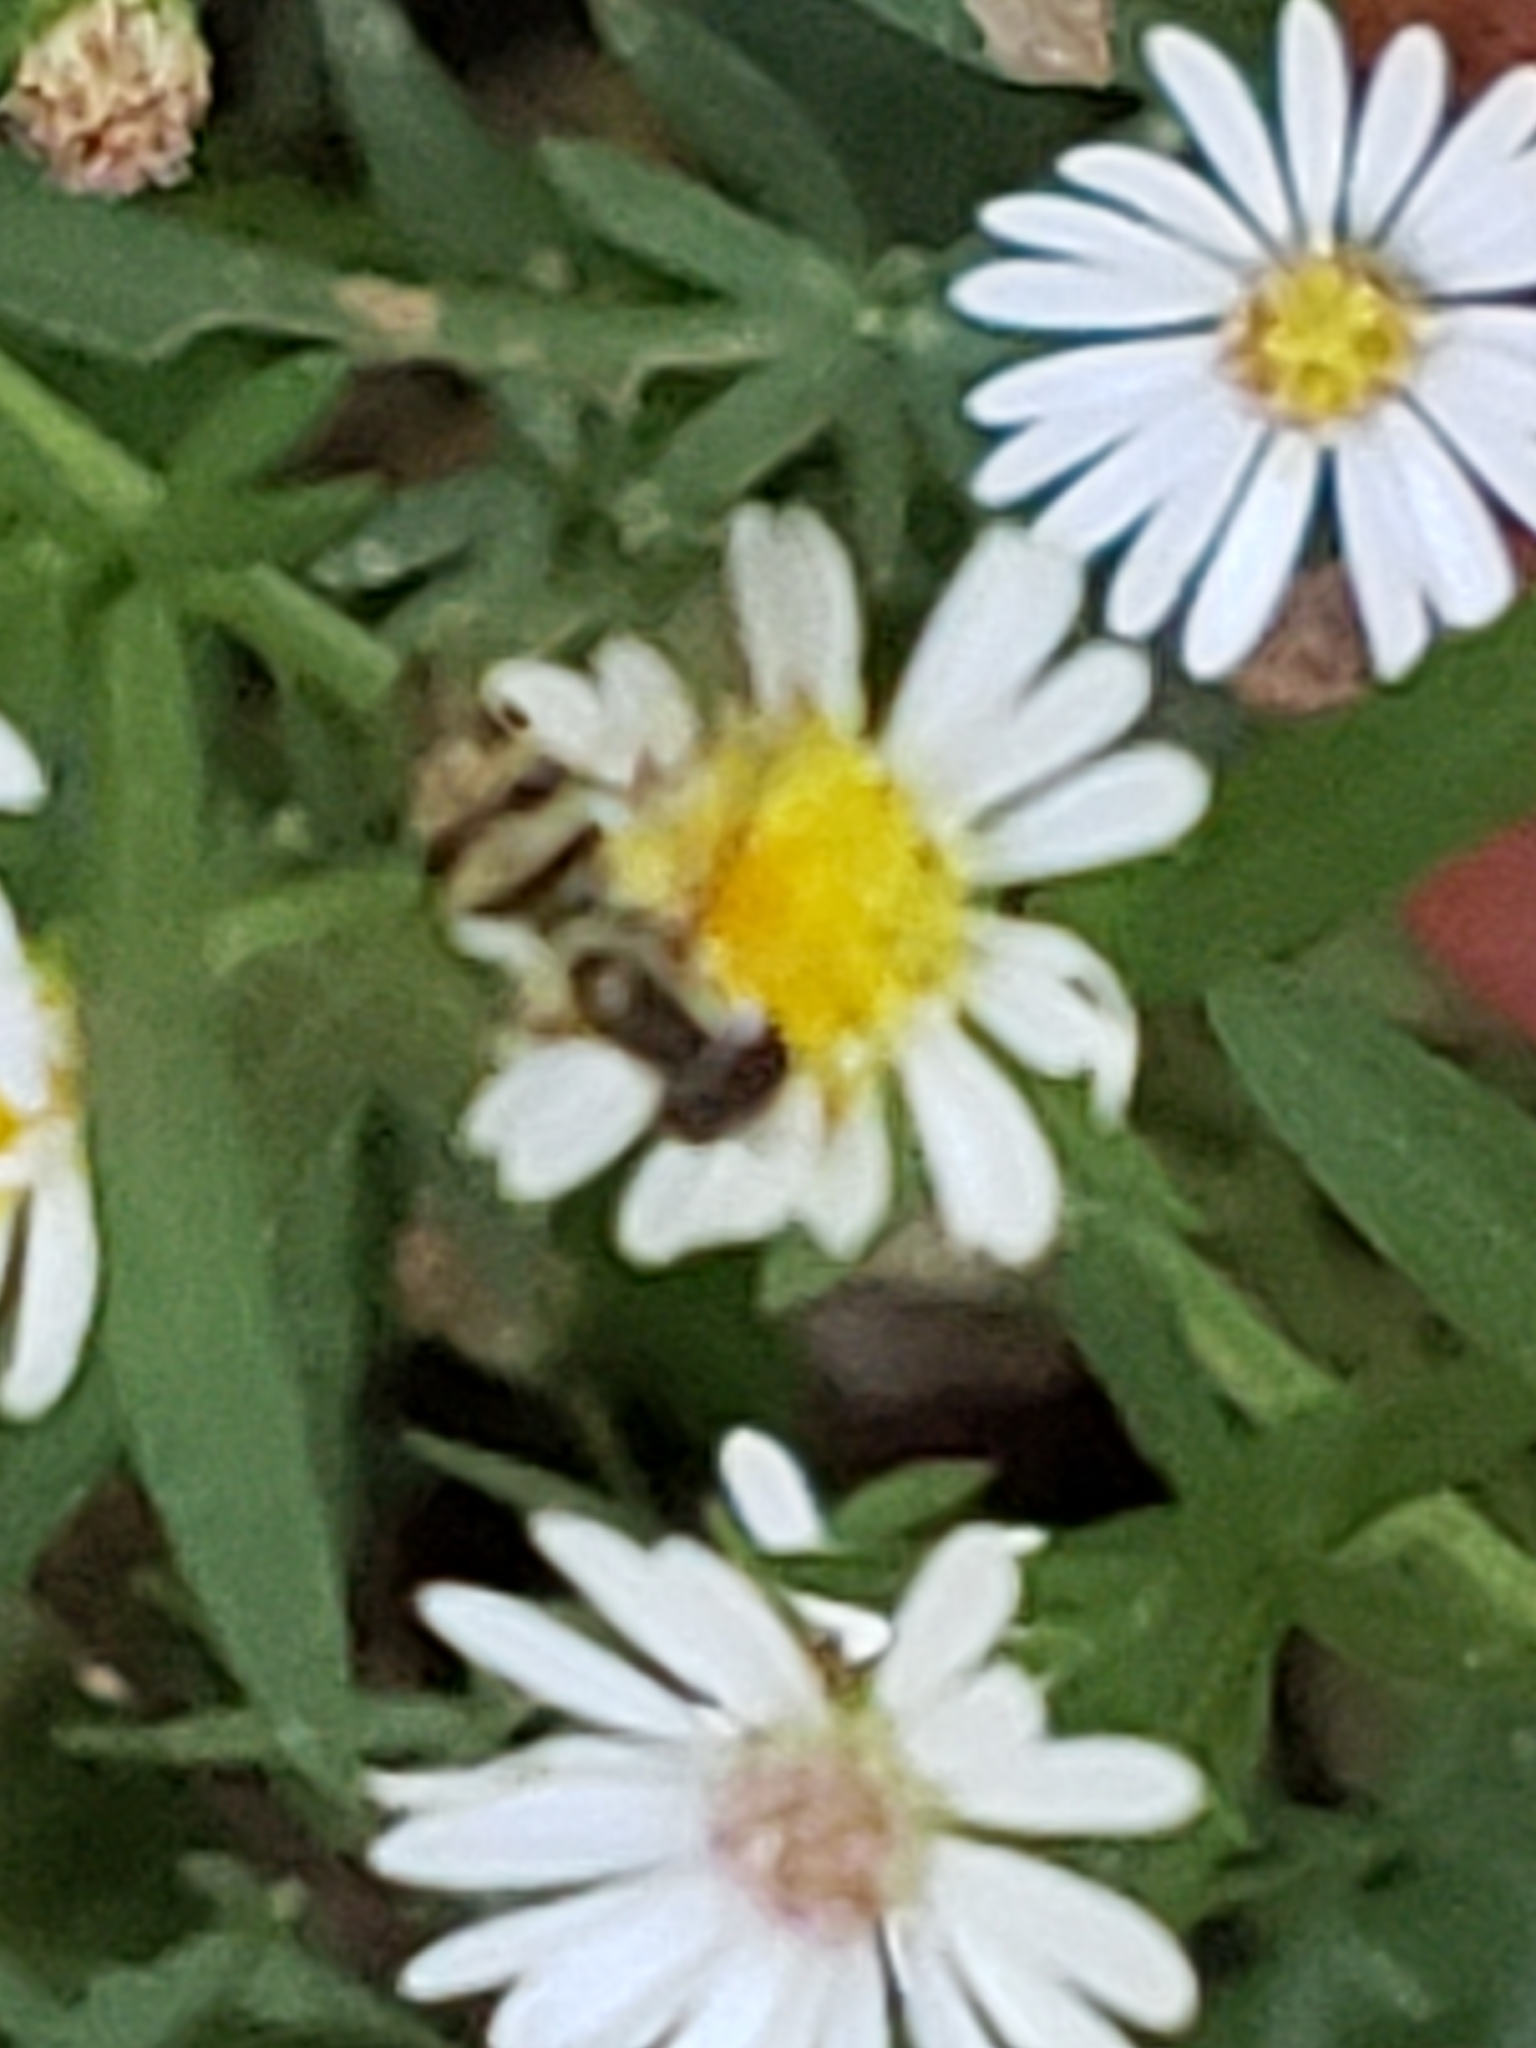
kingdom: Animalia
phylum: Arthropoda
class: Insecta
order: Diptera
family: Syrphidae
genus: Toxomerus
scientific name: Toxomerus geminatus
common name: Eastern calligrapher
